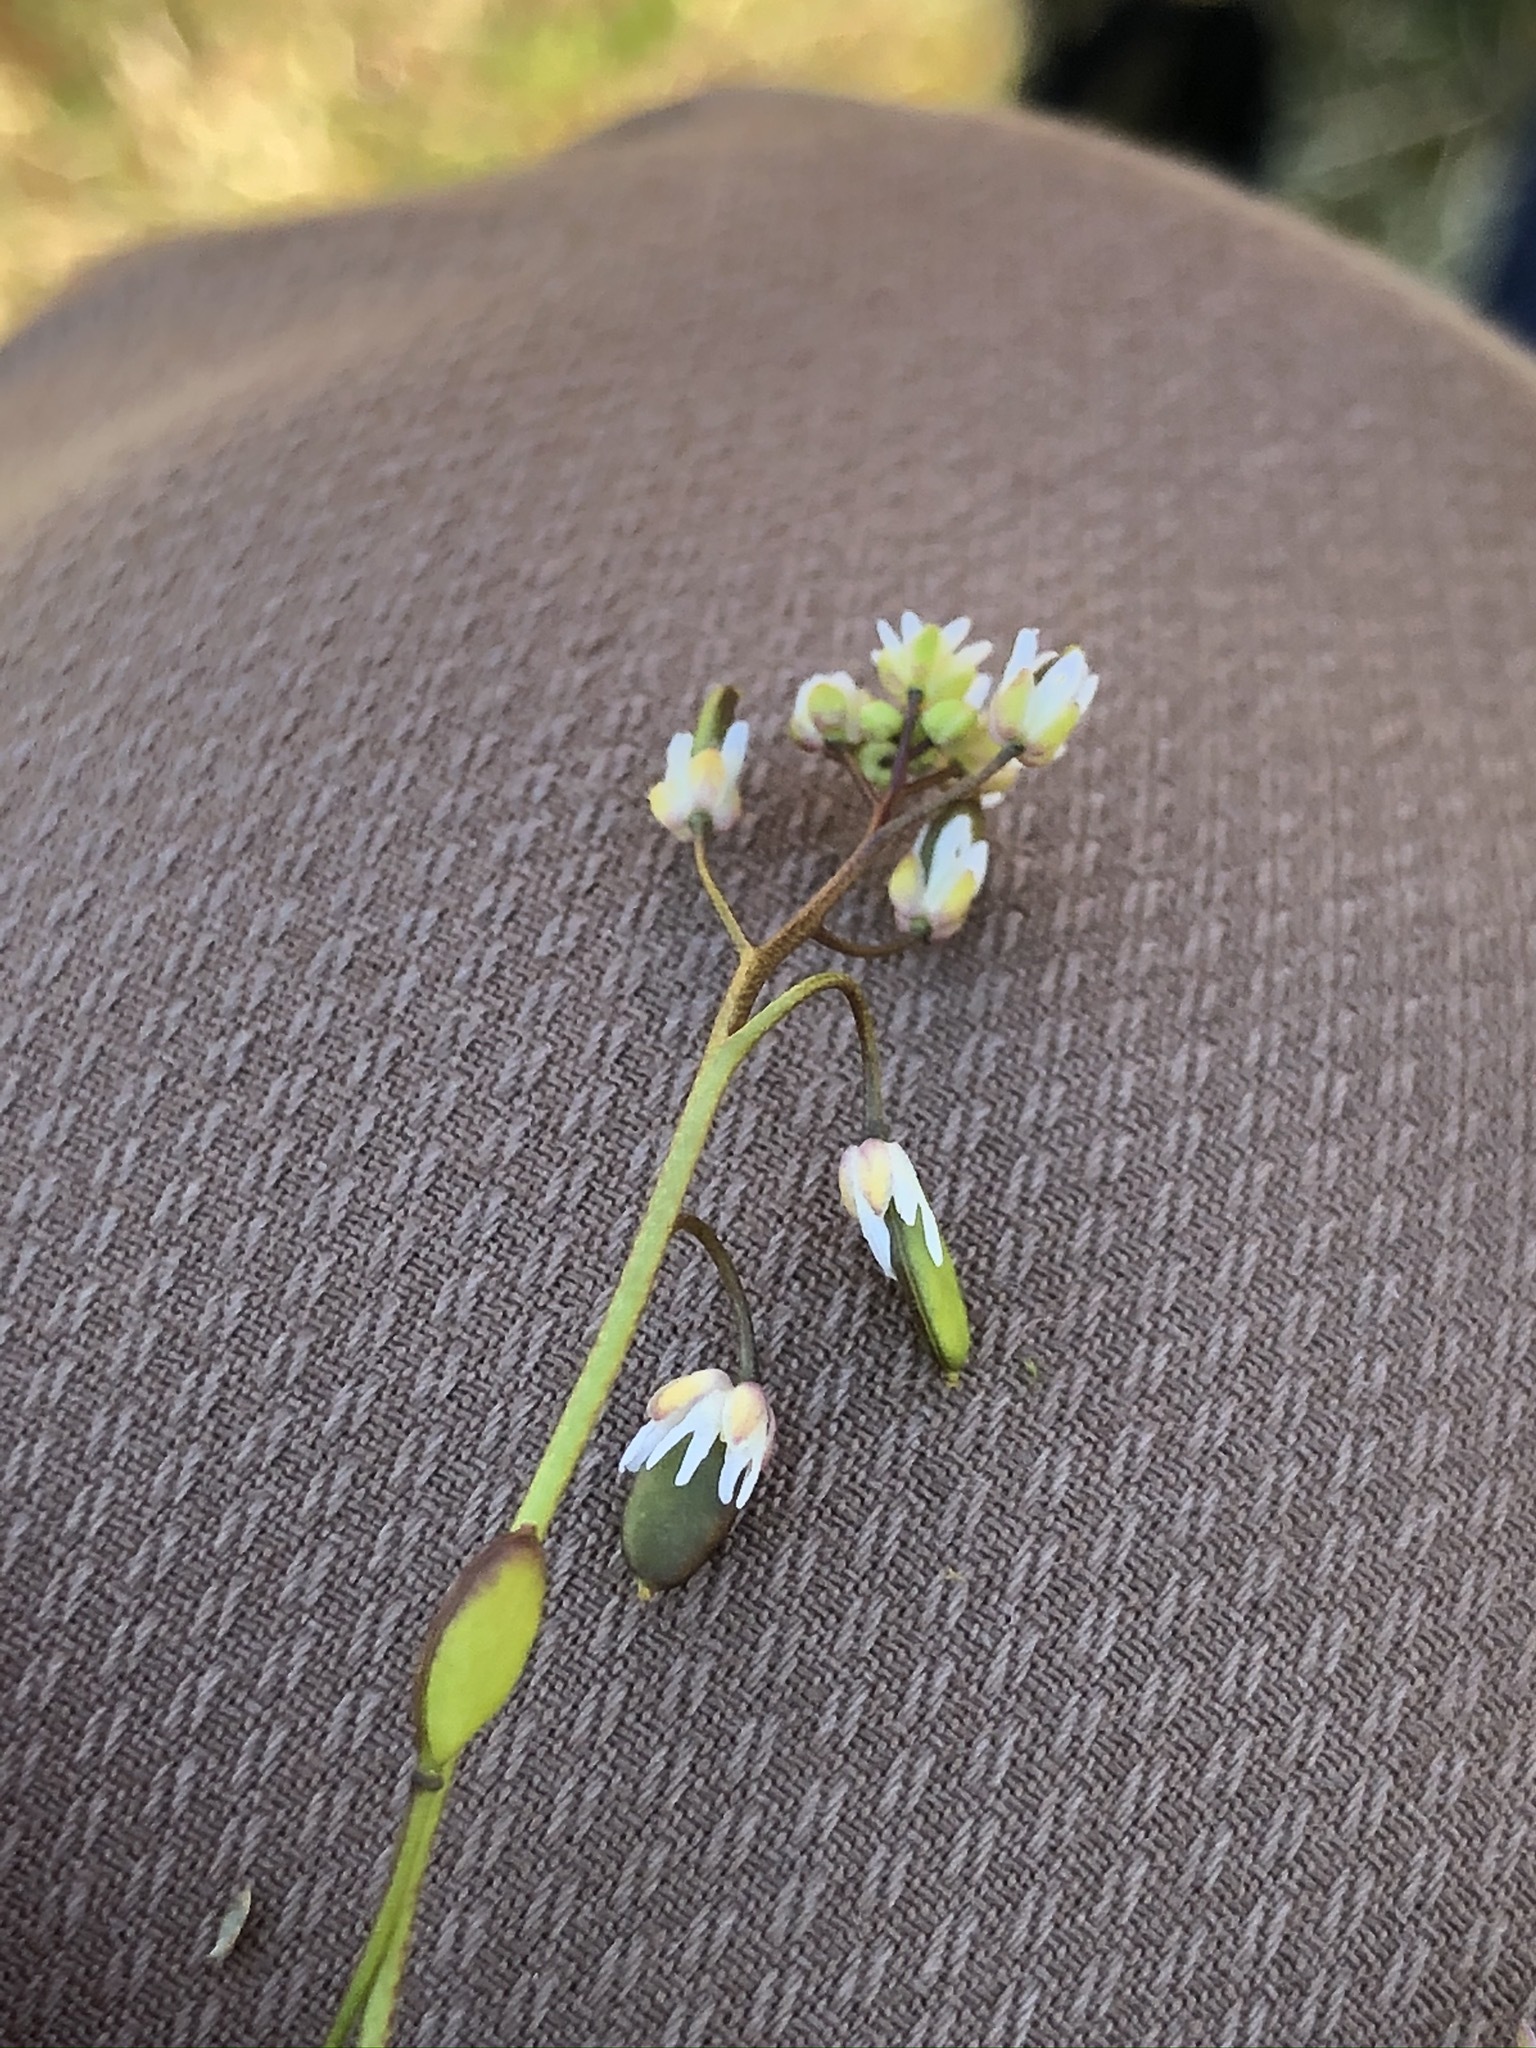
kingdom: Plantae
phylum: Tracheophyta
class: Magnoliopsida
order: Brassicales
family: Brassicaceae
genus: Draba
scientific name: Draba verna
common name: Spring draba
